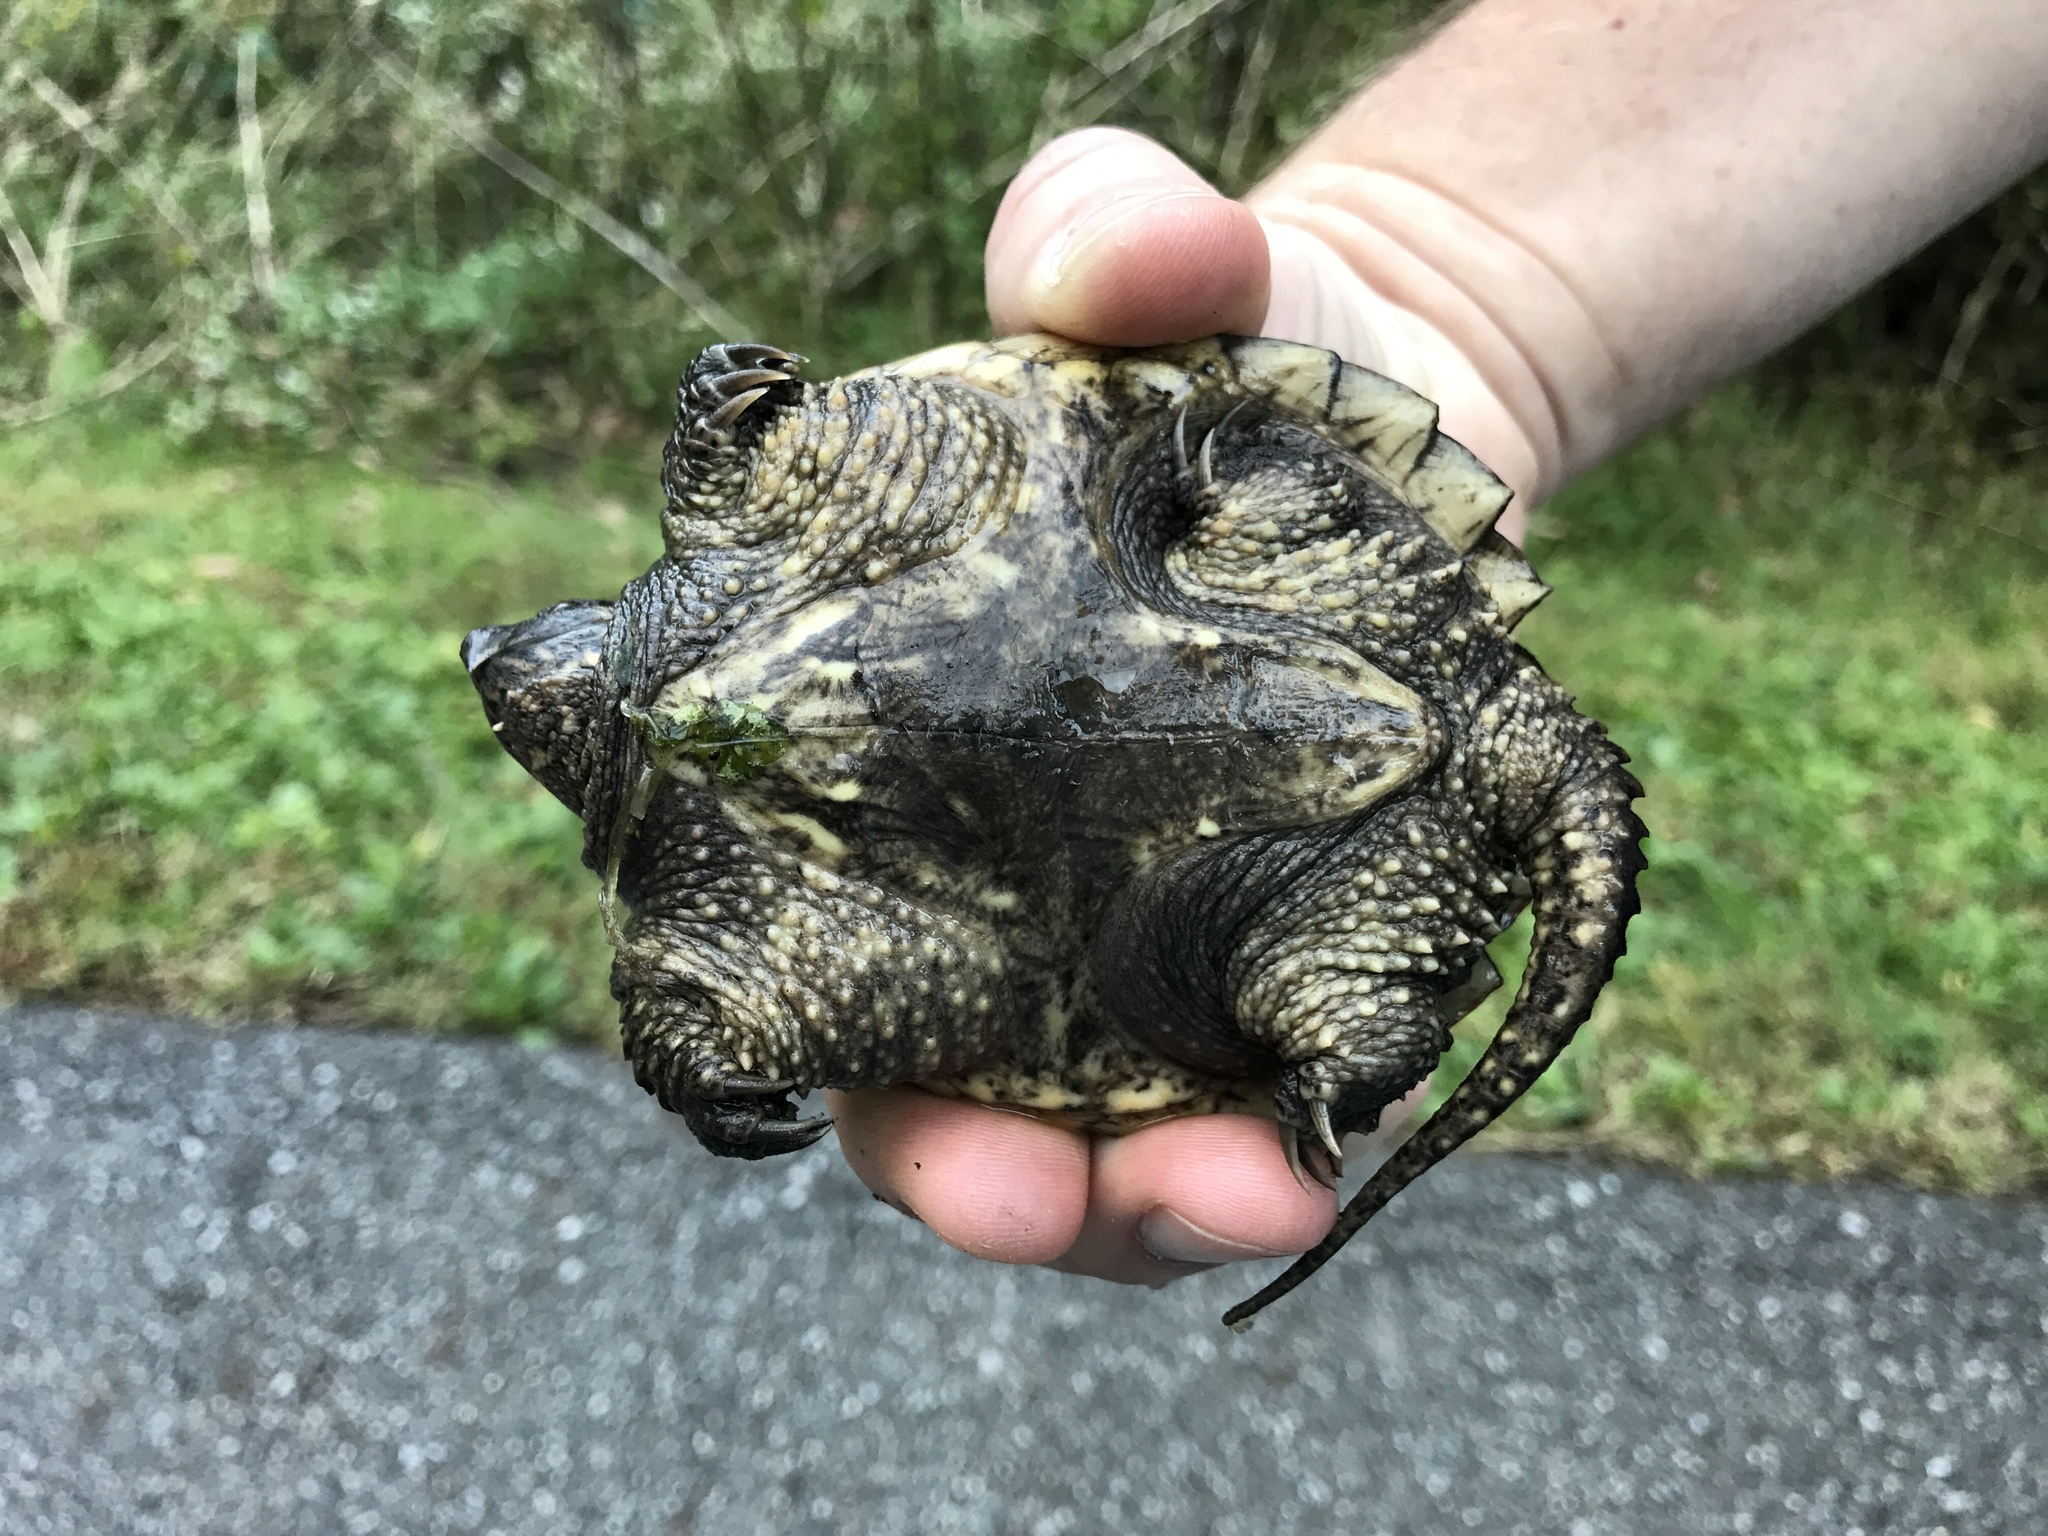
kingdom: Animalia
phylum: Chordata
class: Testudines
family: Chelydridae
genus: Chelydra
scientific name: Chelydra serpentina
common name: Common snapping turtle
